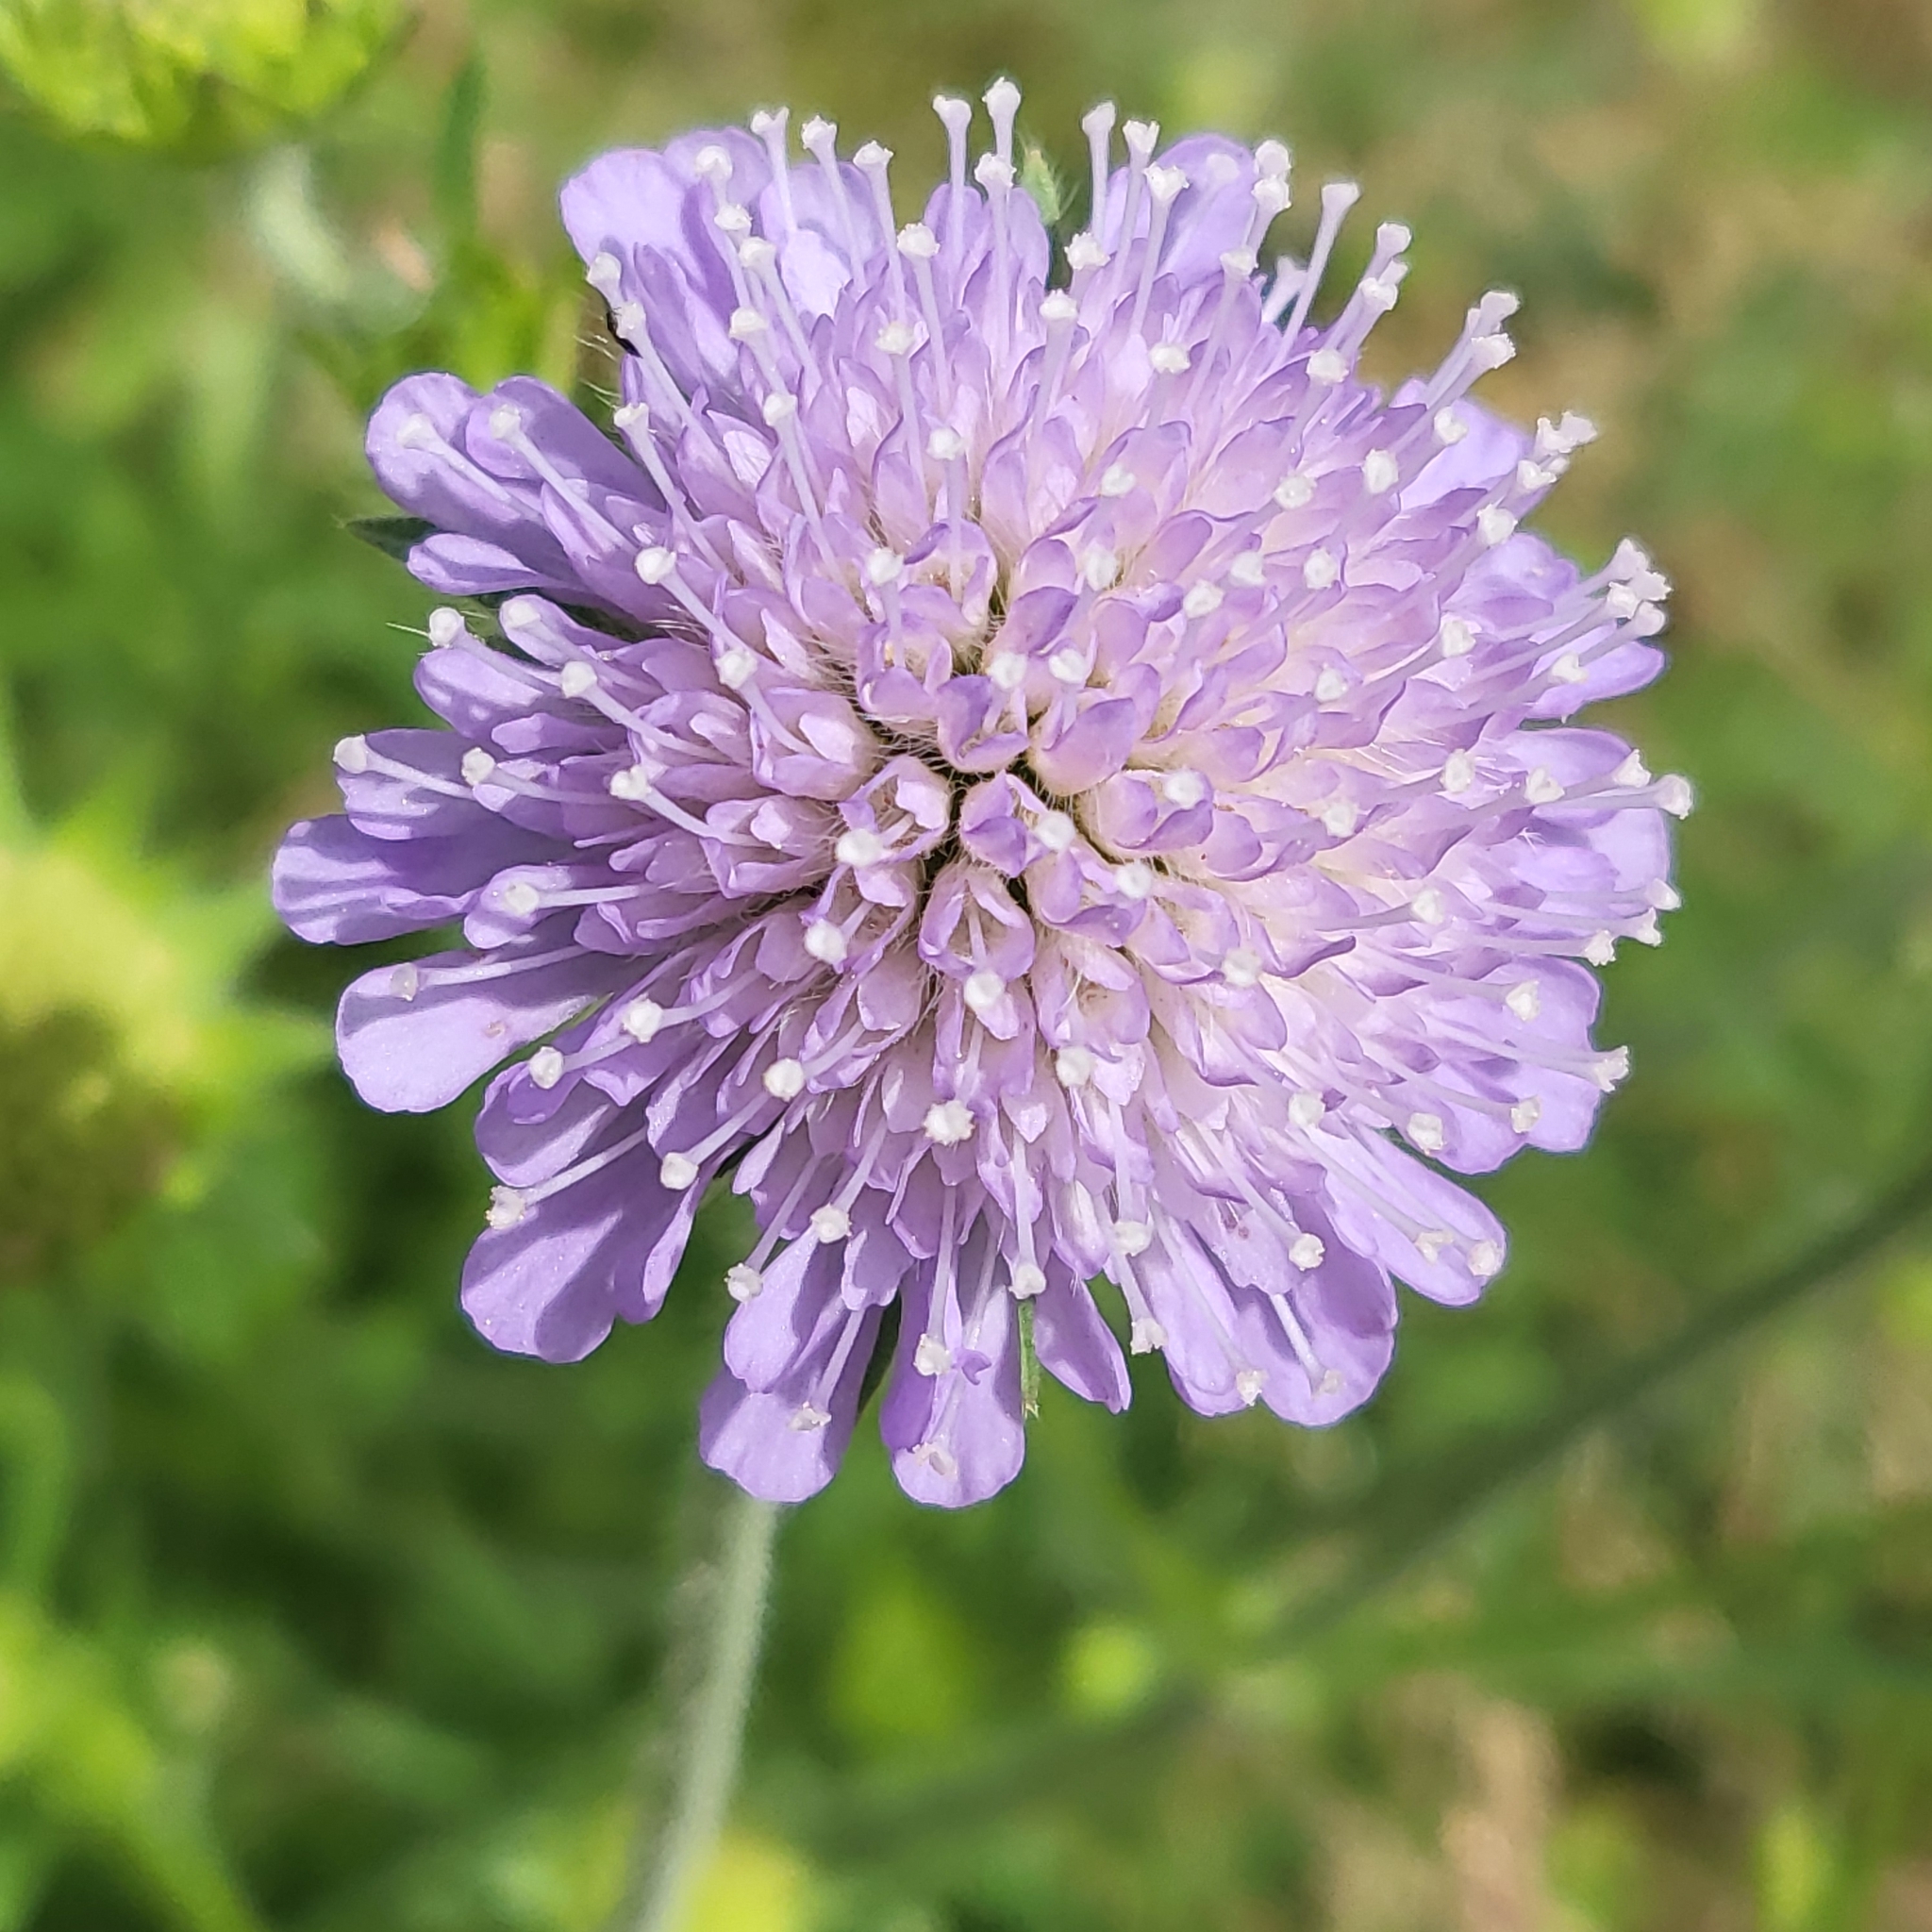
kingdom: Plantae
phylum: Tracheophyta
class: Magnoliopsida
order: Dipsacales
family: Caprifoliaceae
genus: Knautia
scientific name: Knautia arvensis
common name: Field scabiosa
